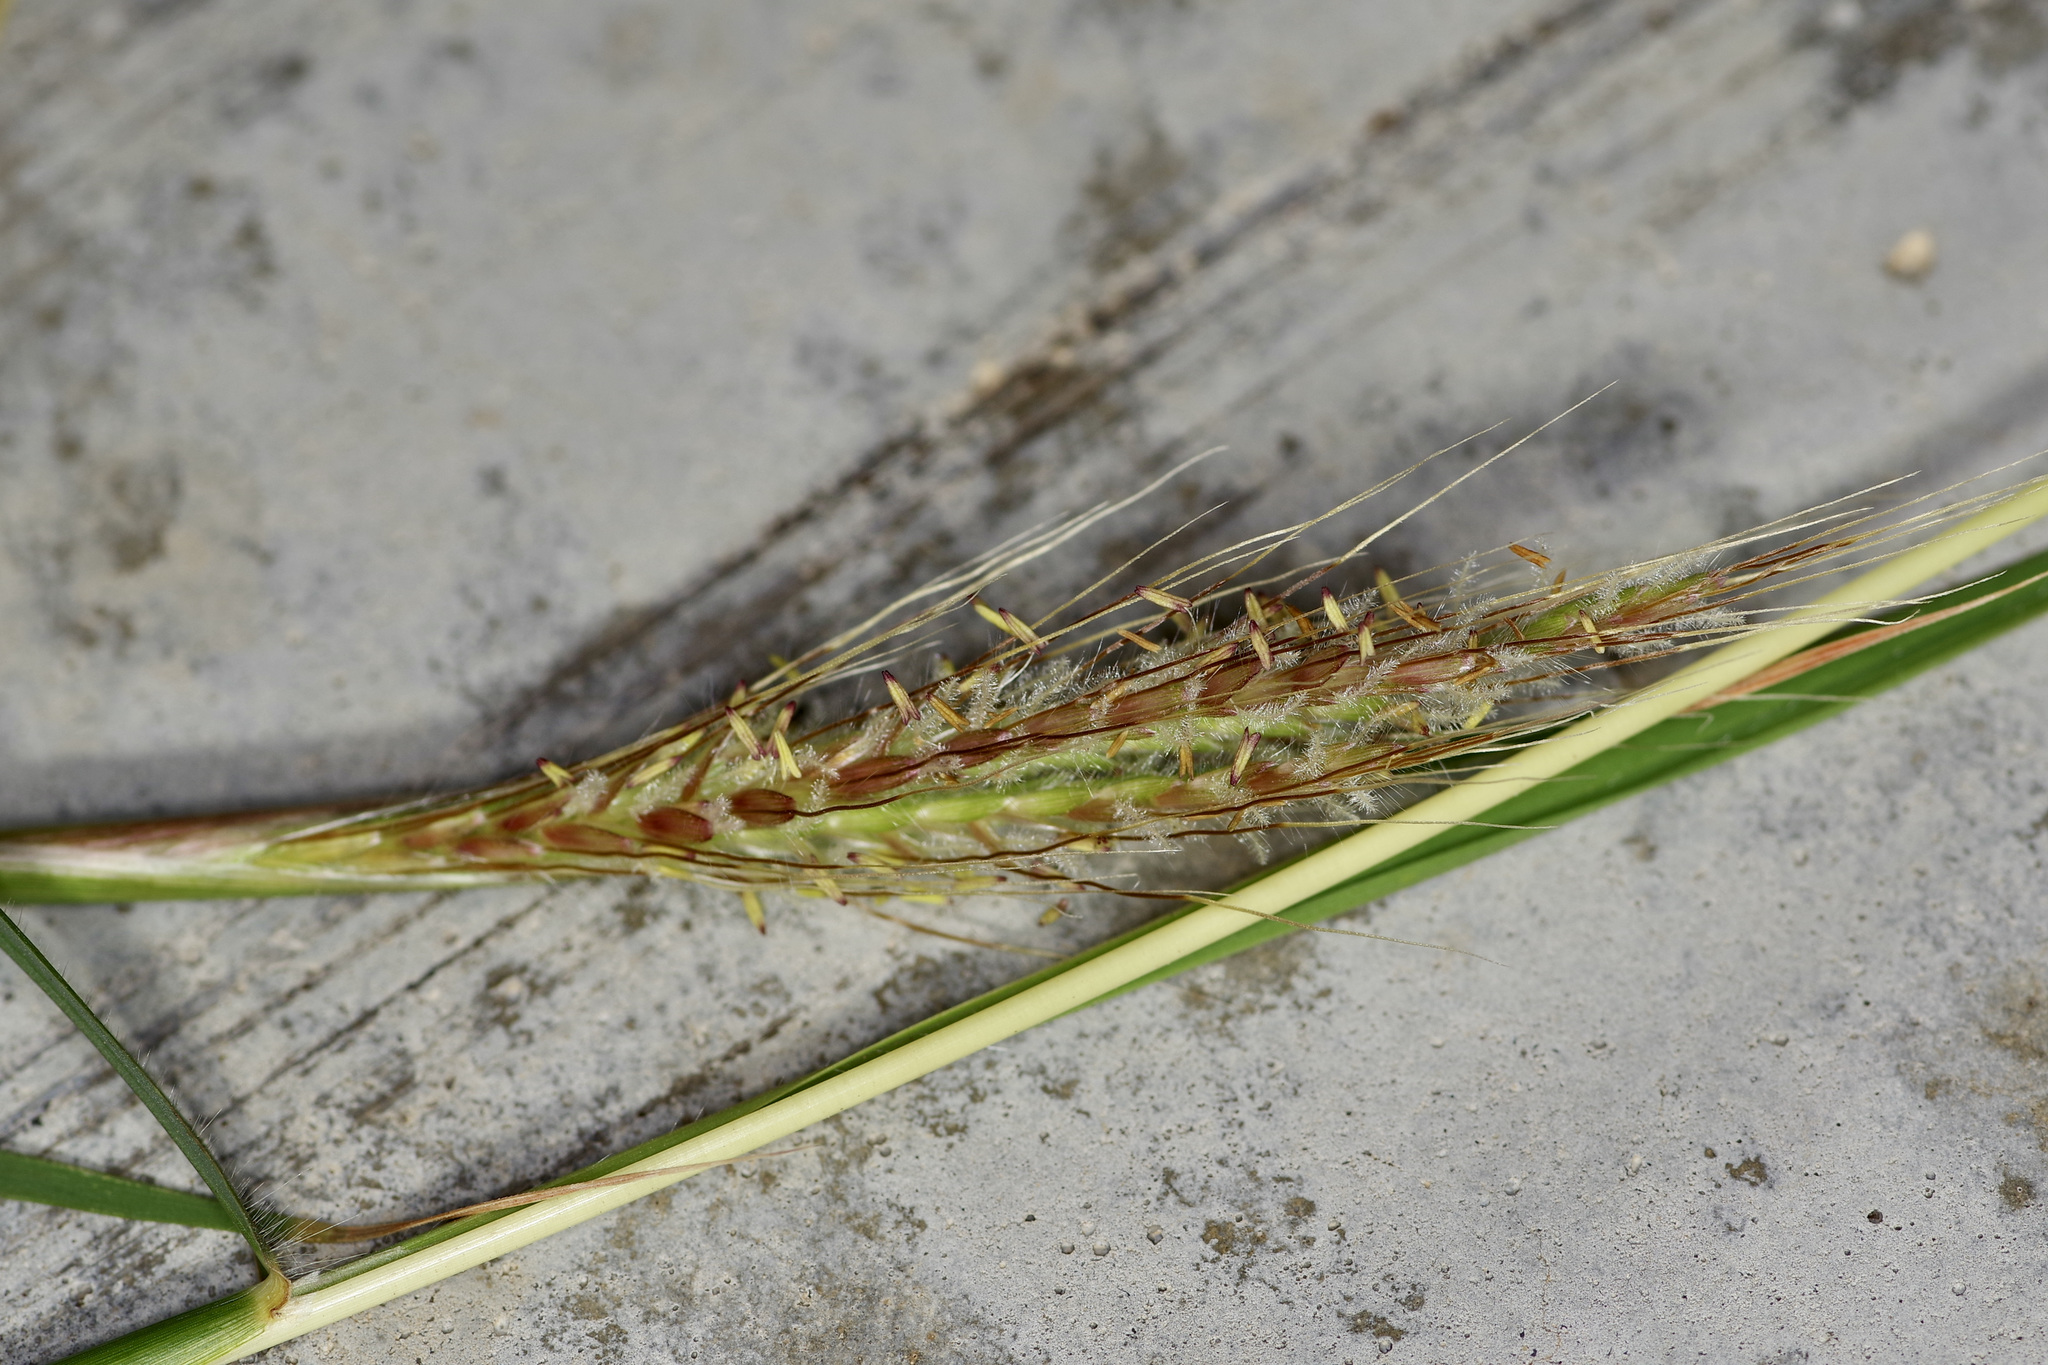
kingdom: Plantae
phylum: Tracheophyta
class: Liliopsida
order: Poales
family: Poaceae
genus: Dichanthium
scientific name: Dichanthium annulatum
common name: Kleberg's bluestem
